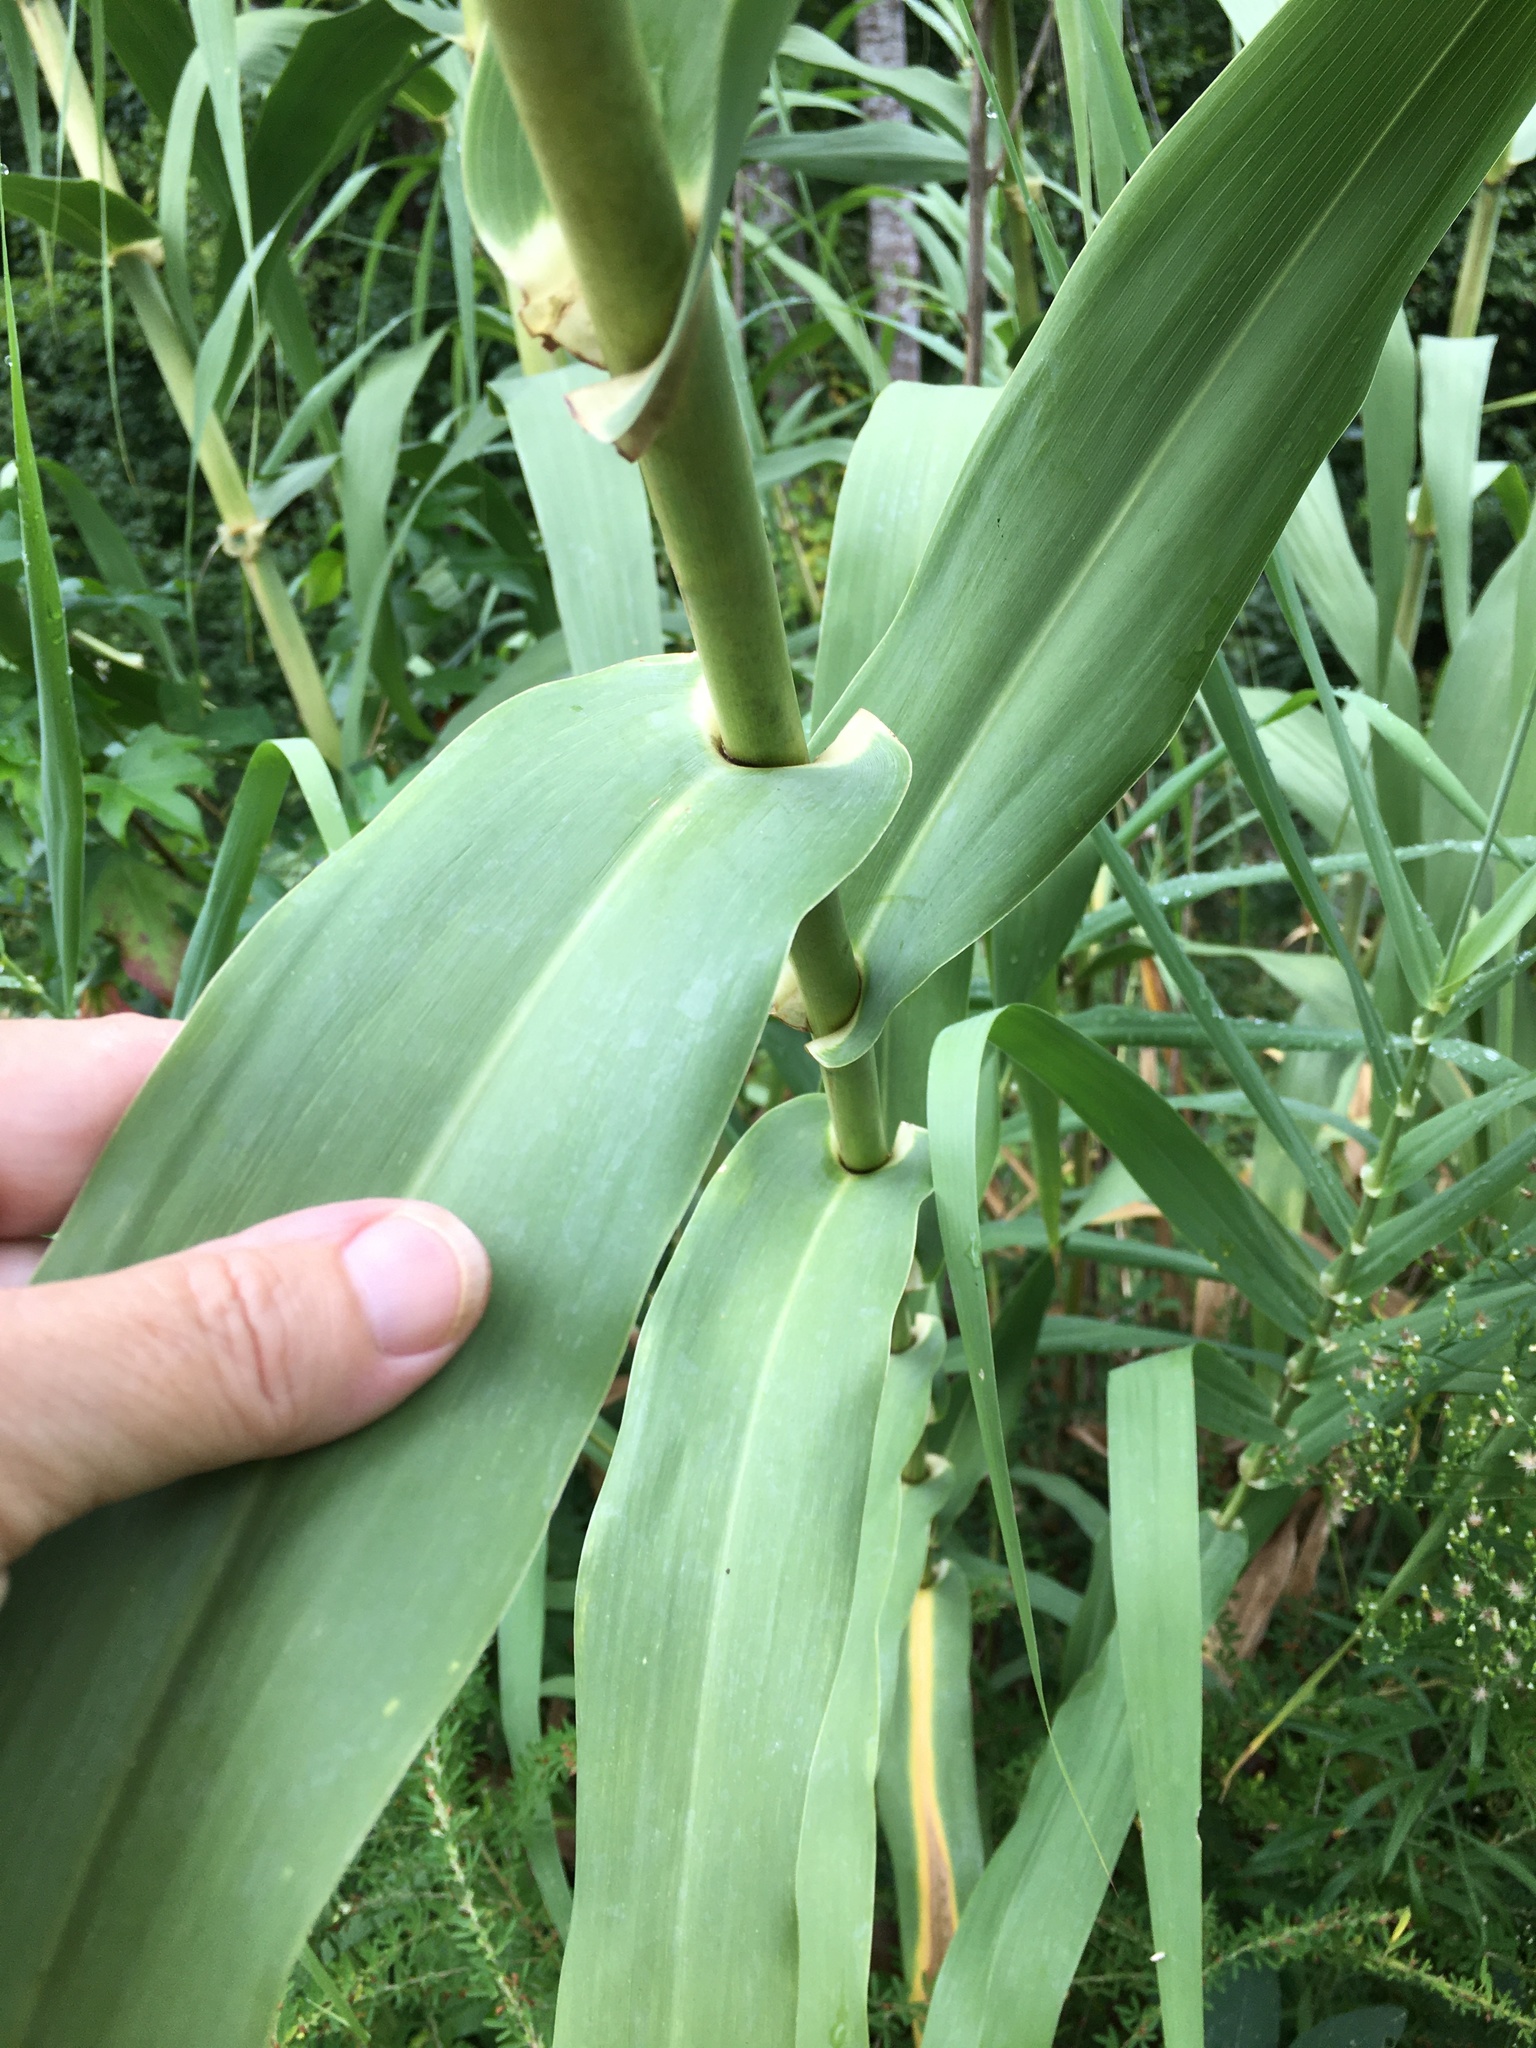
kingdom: Plantae
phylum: Tracheophyta
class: Liliopsida
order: Poales
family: Poaceae
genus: Arundo
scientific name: Arundo donax
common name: Giant reed
